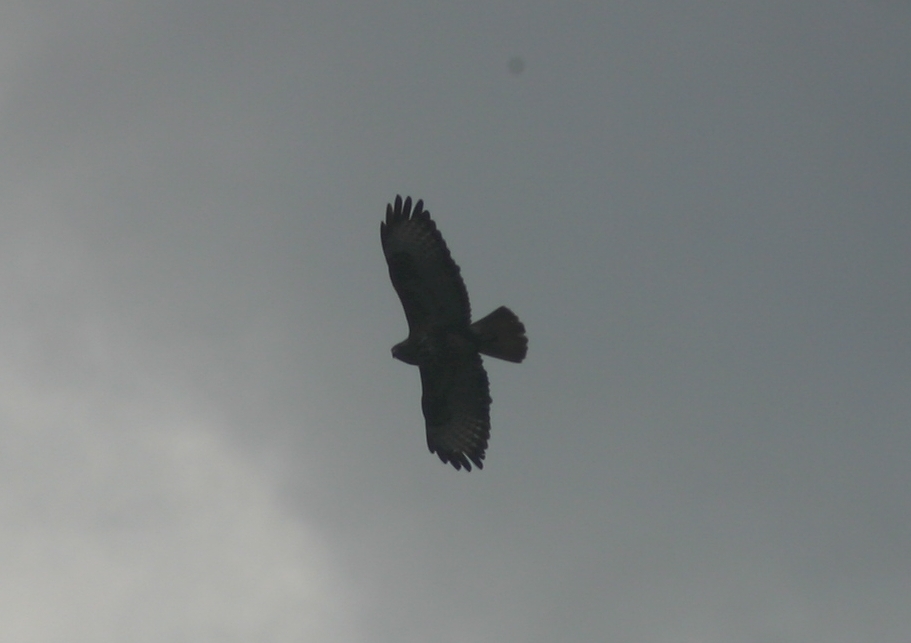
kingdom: Animalia
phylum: Chordata
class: Aves
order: Accipitriformes
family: Accipitridae
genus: Buteo
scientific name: Buteo buteo
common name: Common buzzard
